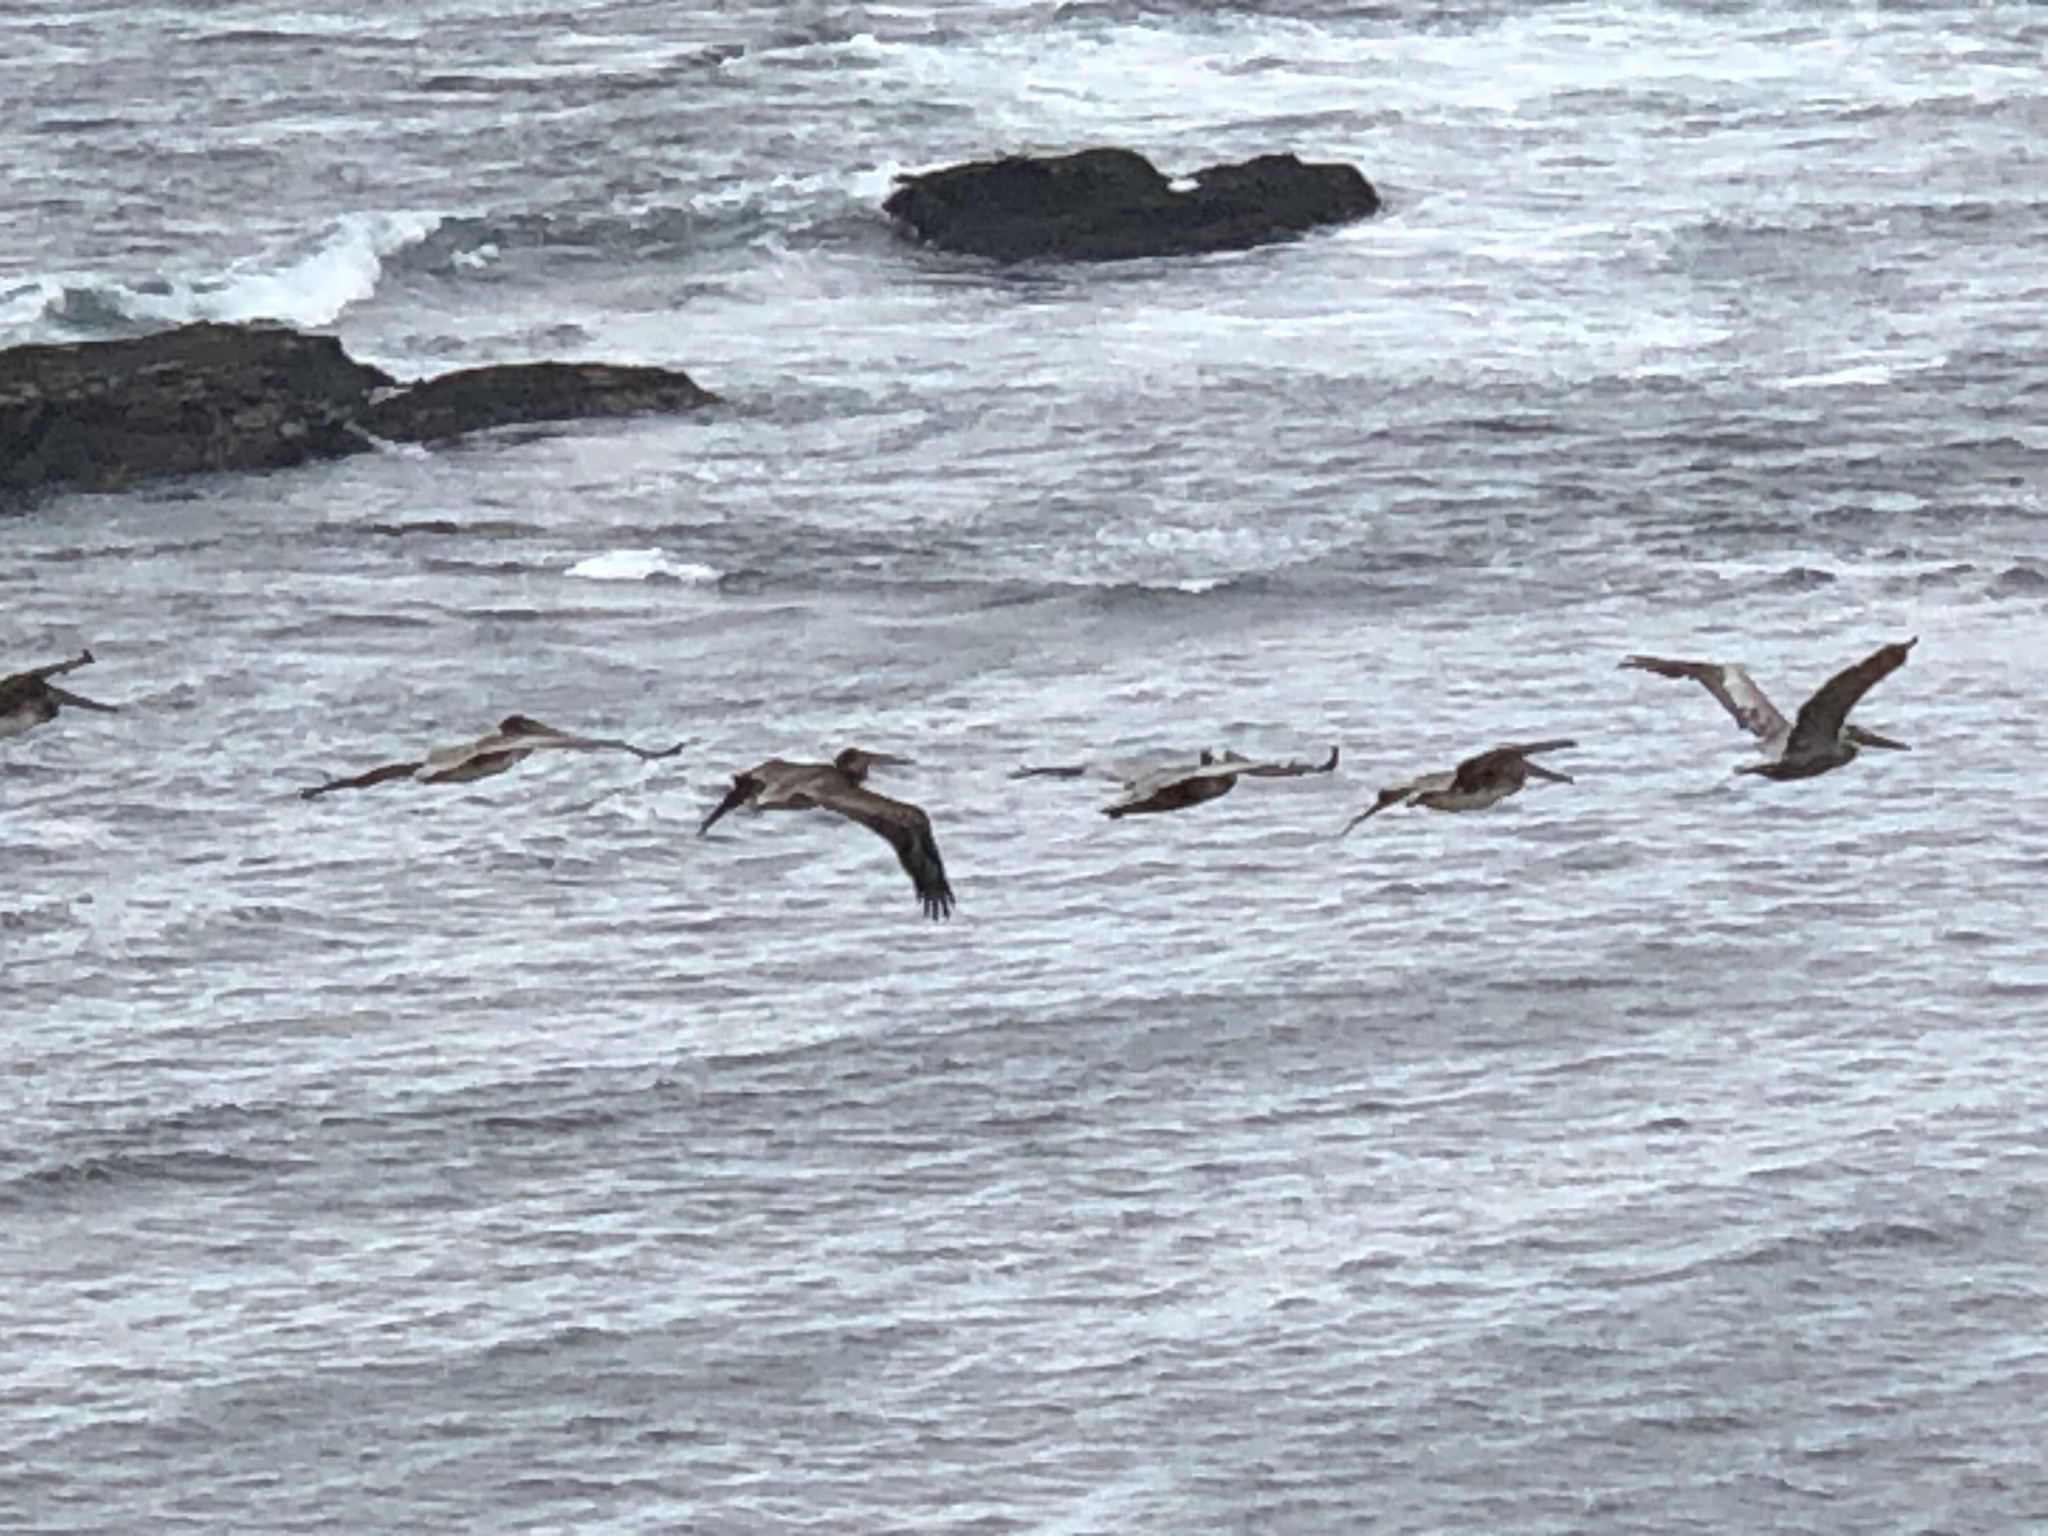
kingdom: Animalia
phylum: Chordata
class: Aves
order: Pelecaniformes
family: Pelecanidae
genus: Pelecanus
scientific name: Pelecanus occidentalis
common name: Brown pelican
